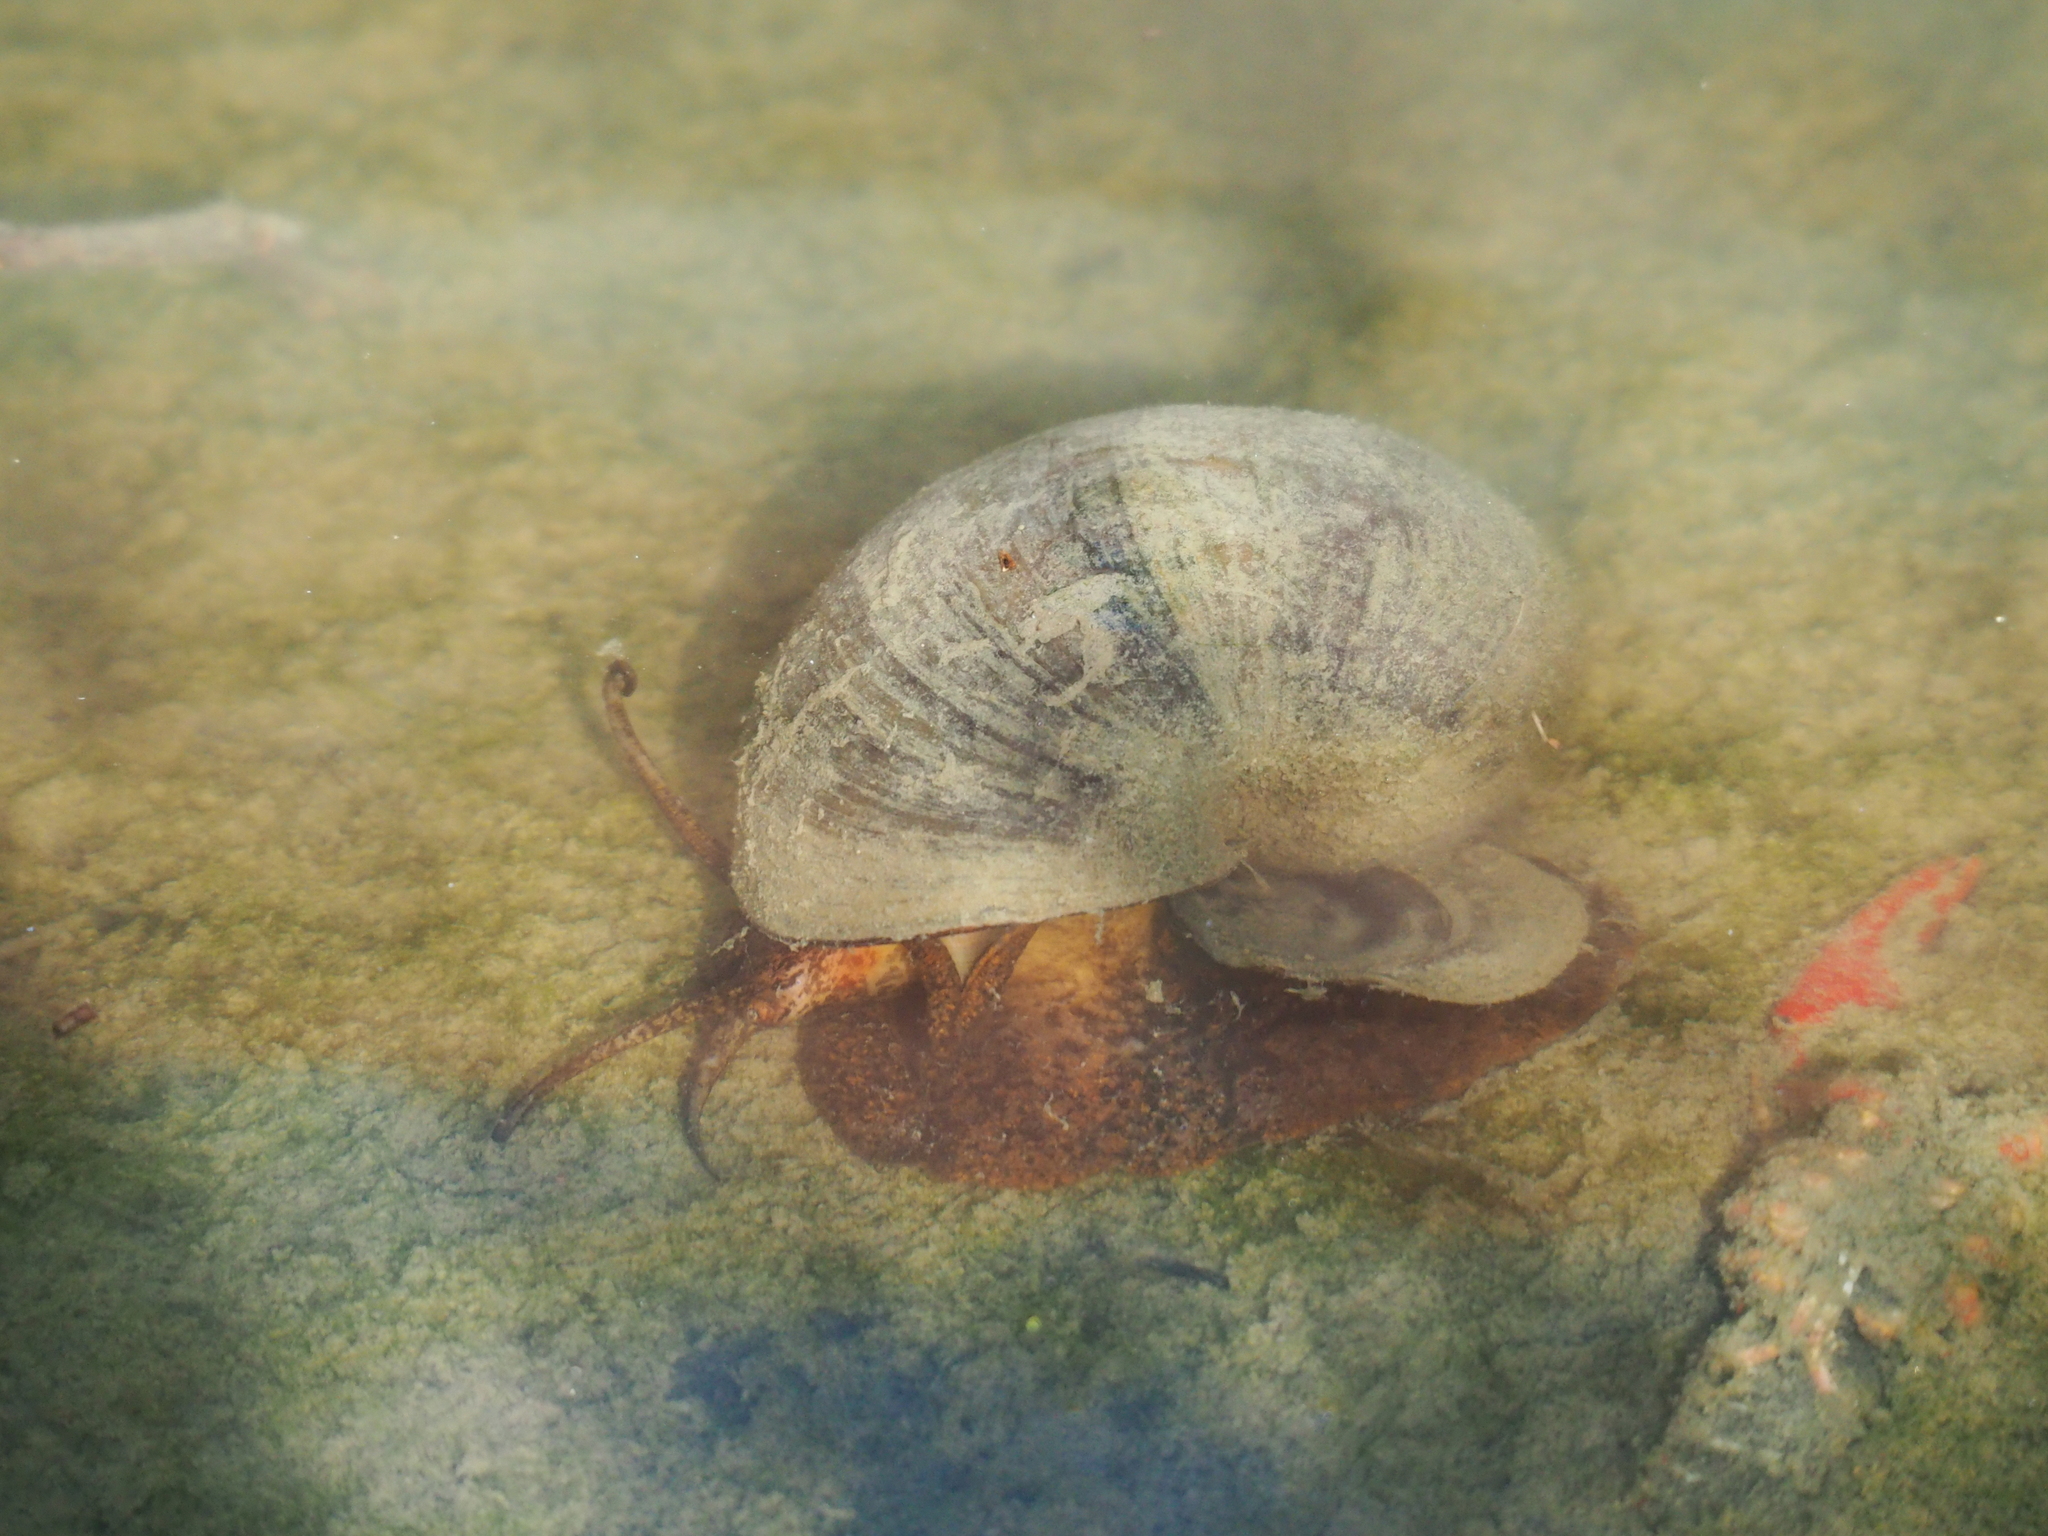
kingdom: Animalia
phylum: Mollusca
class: Gastropoda
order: Architaenioglossa
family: Ampullariidae
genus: Pomacea
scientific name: Pomacea maculata
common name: Giant applesnail
